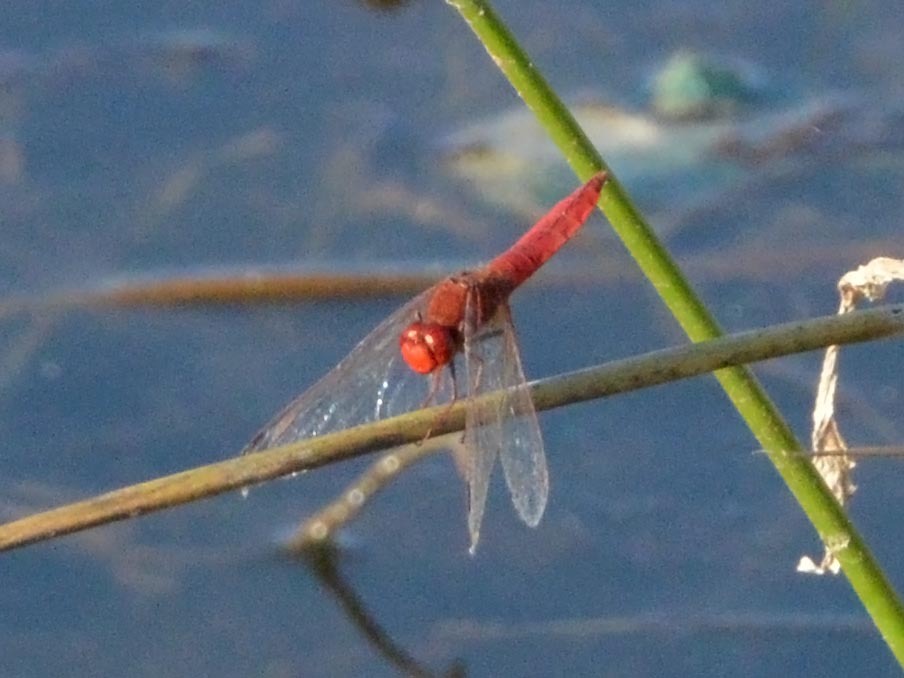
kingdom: Animalia
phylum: Arthropoda
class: Insecta
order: Odonata
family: Libellulidae
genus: Crocothemis
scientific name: Crocothemis erythraea
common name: Scarlet dragonfly
